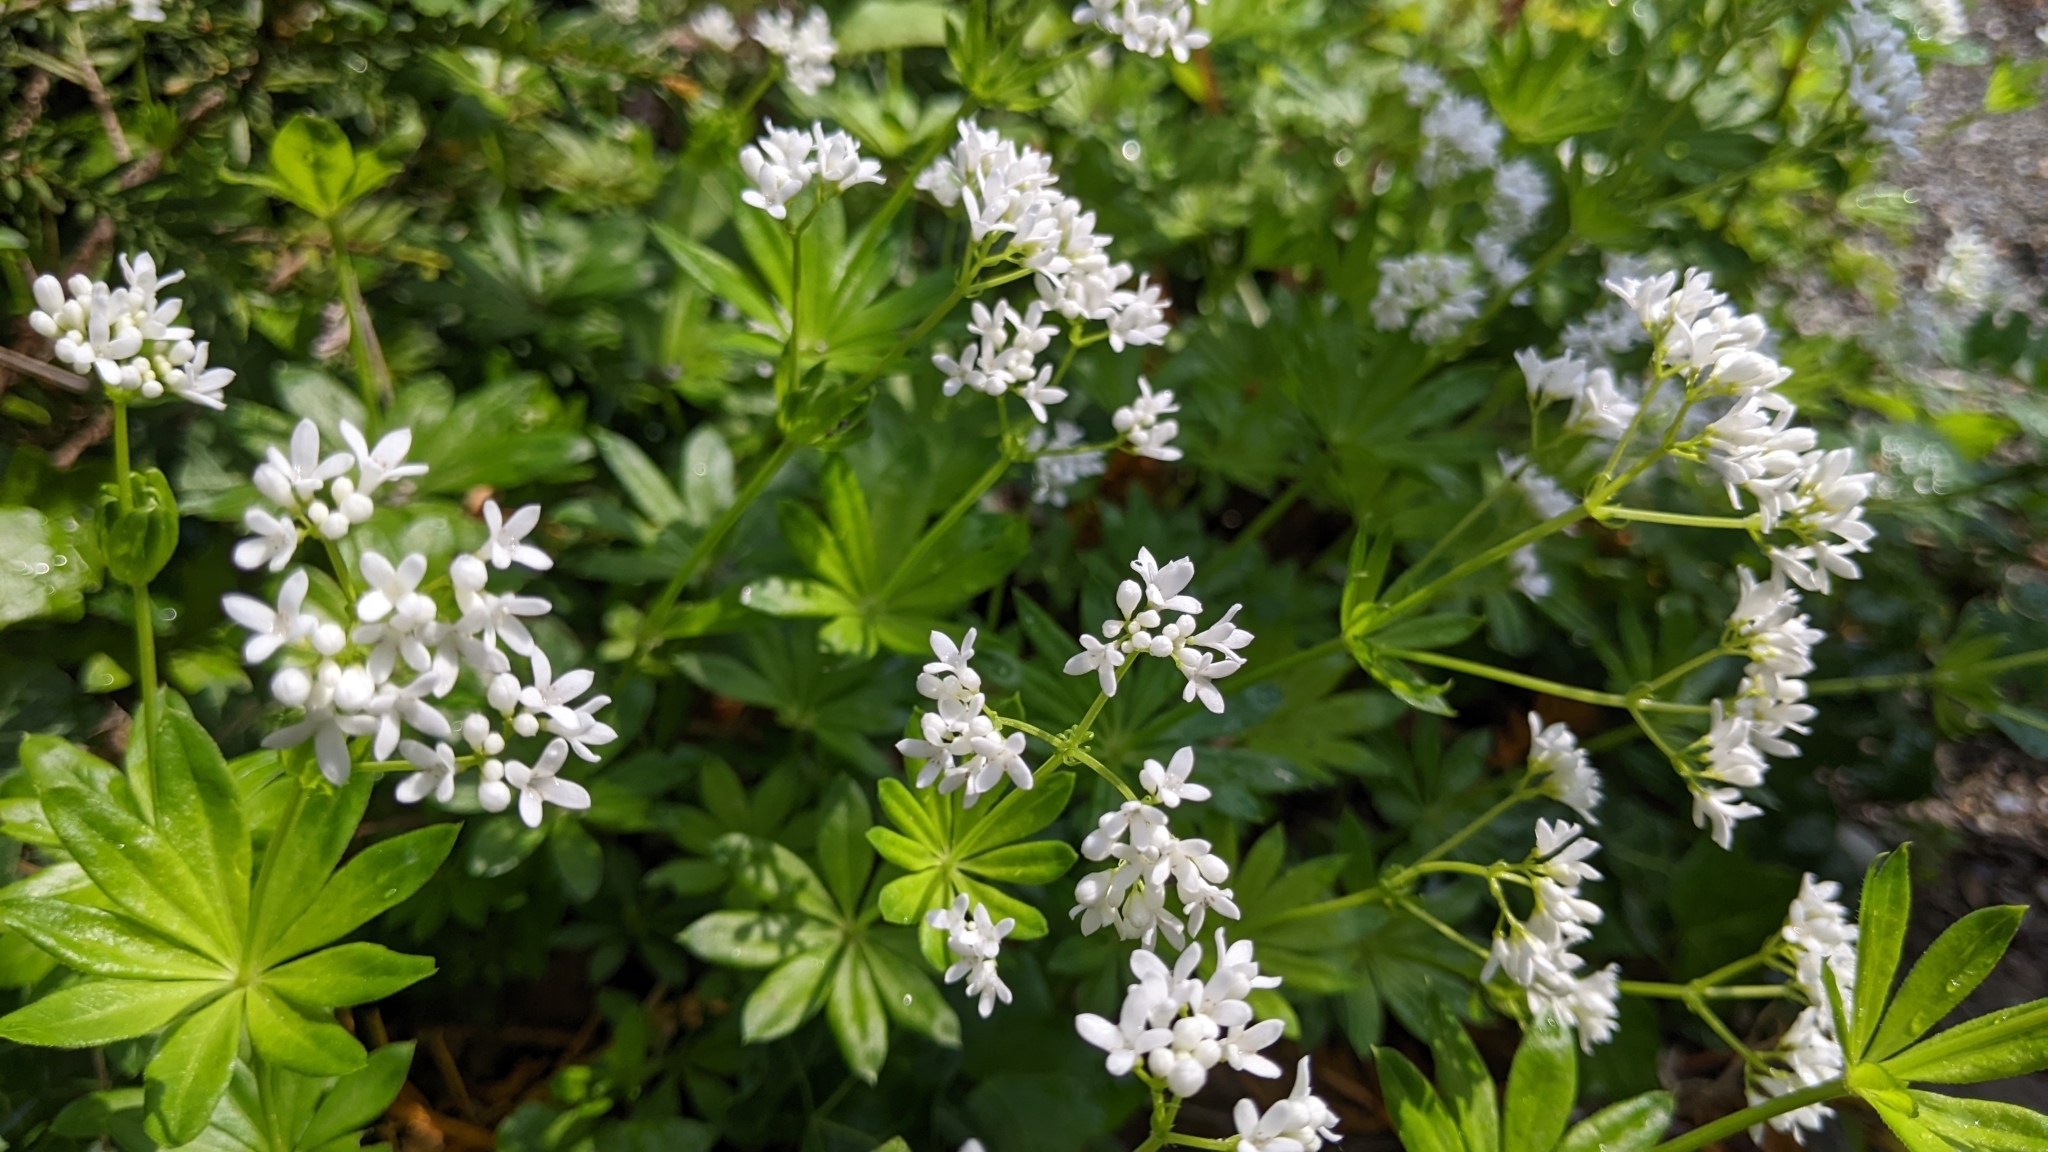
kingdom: Plantae
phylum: Tracheophyta
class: Magnoliopsida
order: Gentianales
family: Rubiaceae
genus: Galium
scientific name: Galium odoratum
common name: Sweet woodruff
